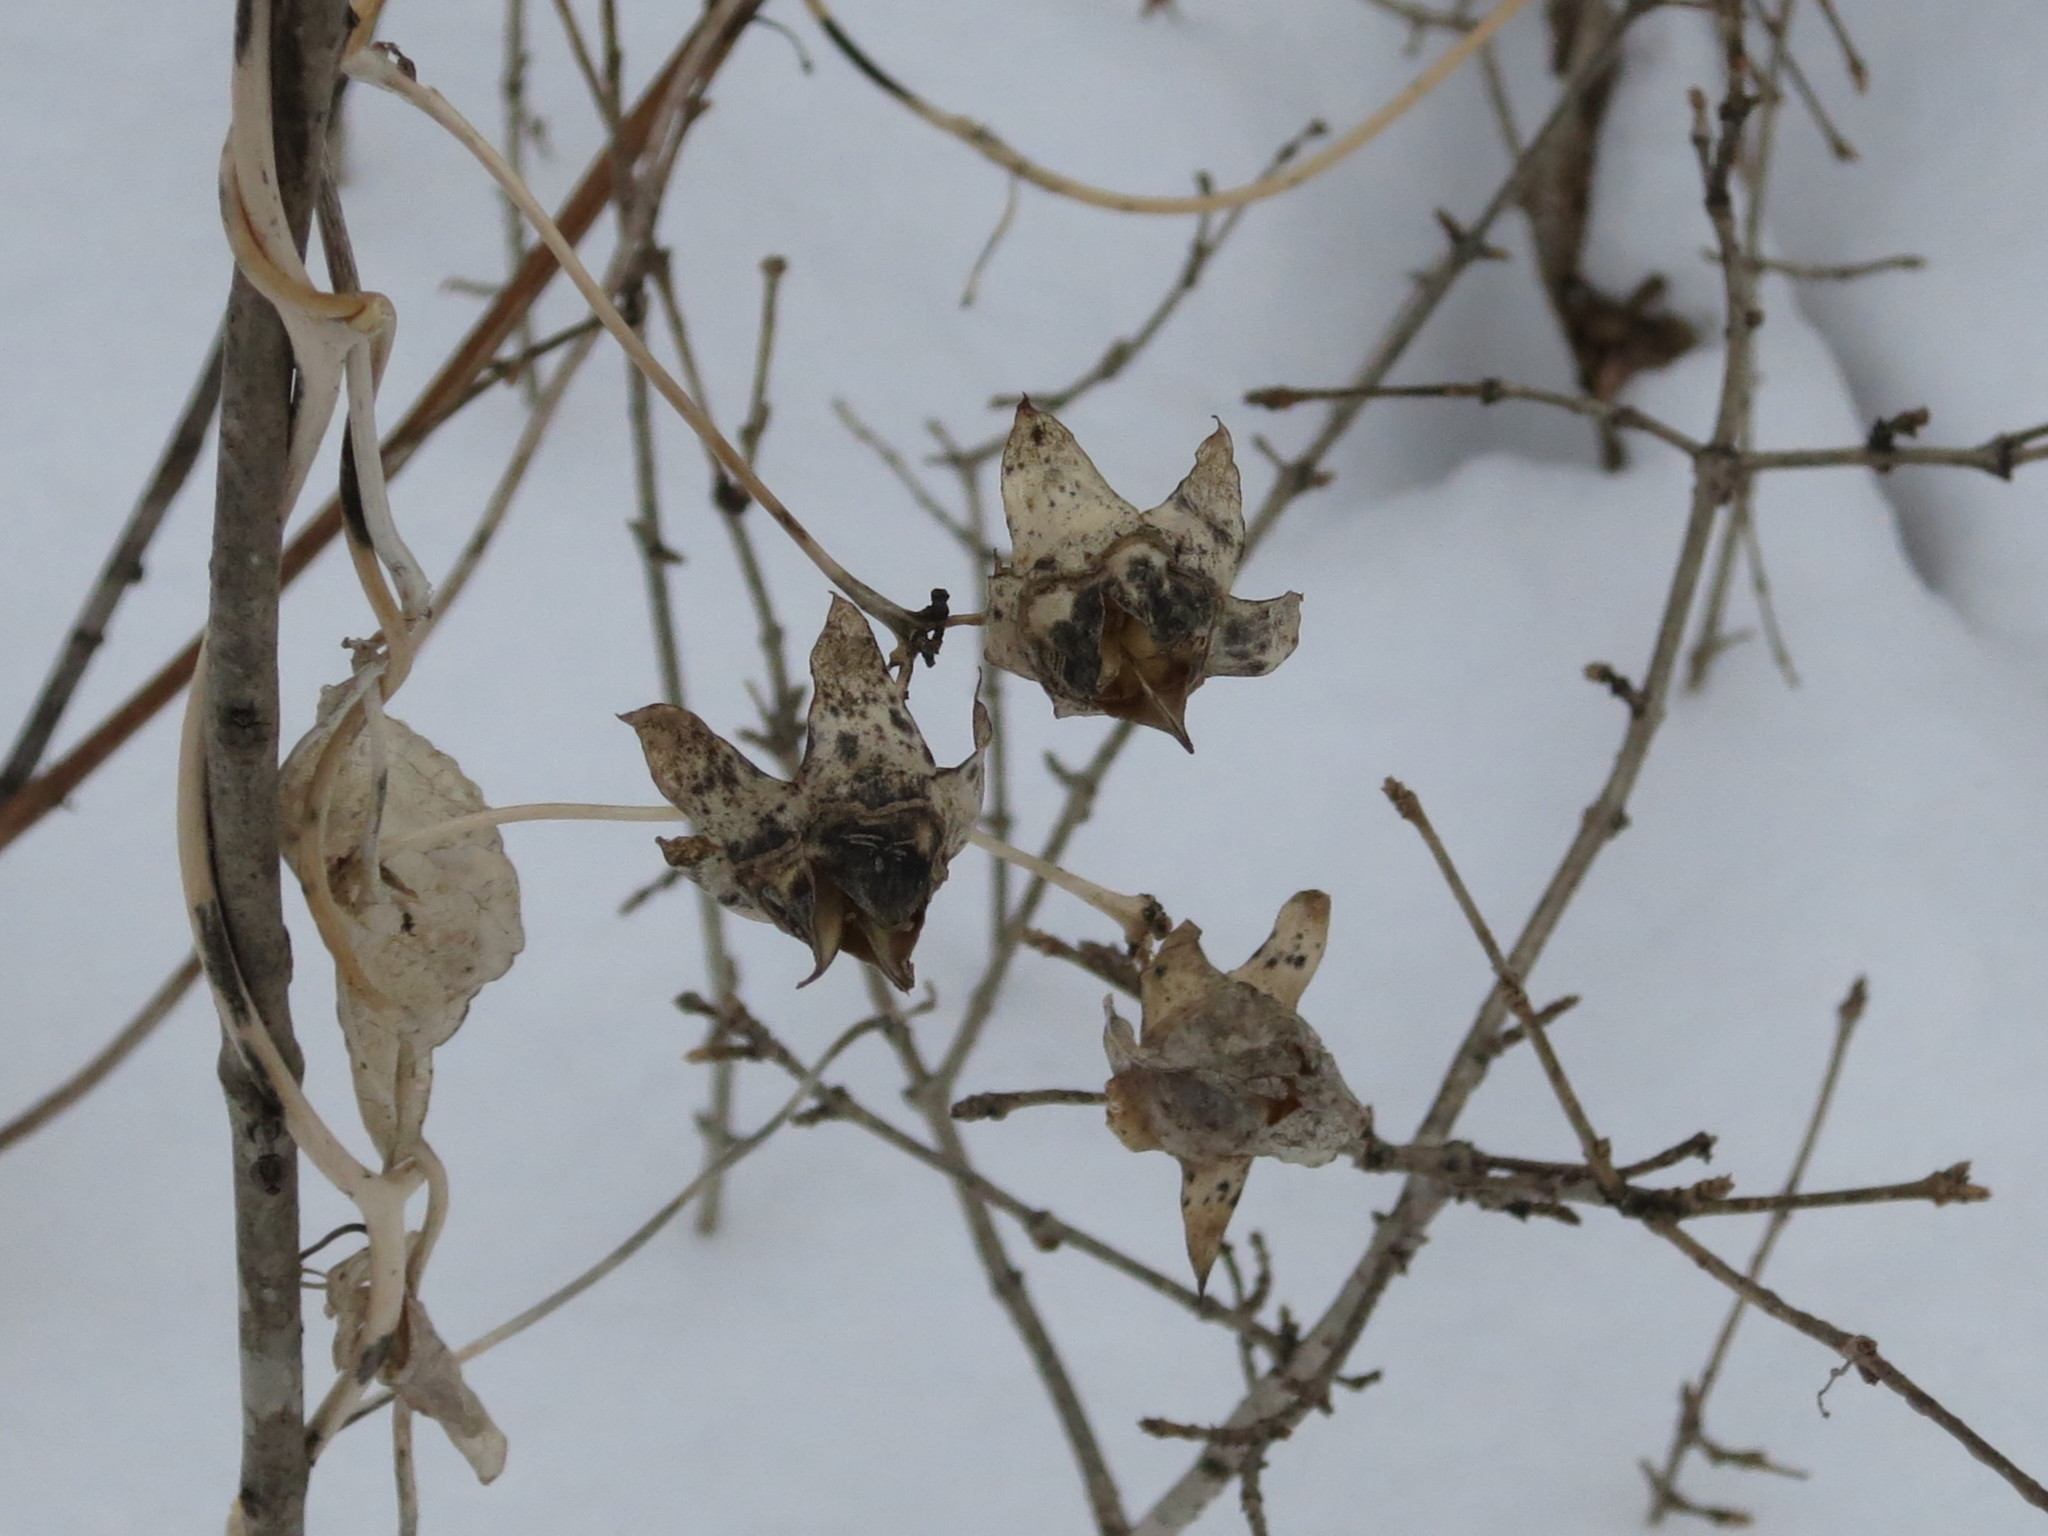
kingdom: Plantae
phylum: Tracheophyta
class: Magnoliopsida
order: Asterales
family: Campanulaceae
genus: Codonopsis
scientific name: Codonopsis lanceolata
